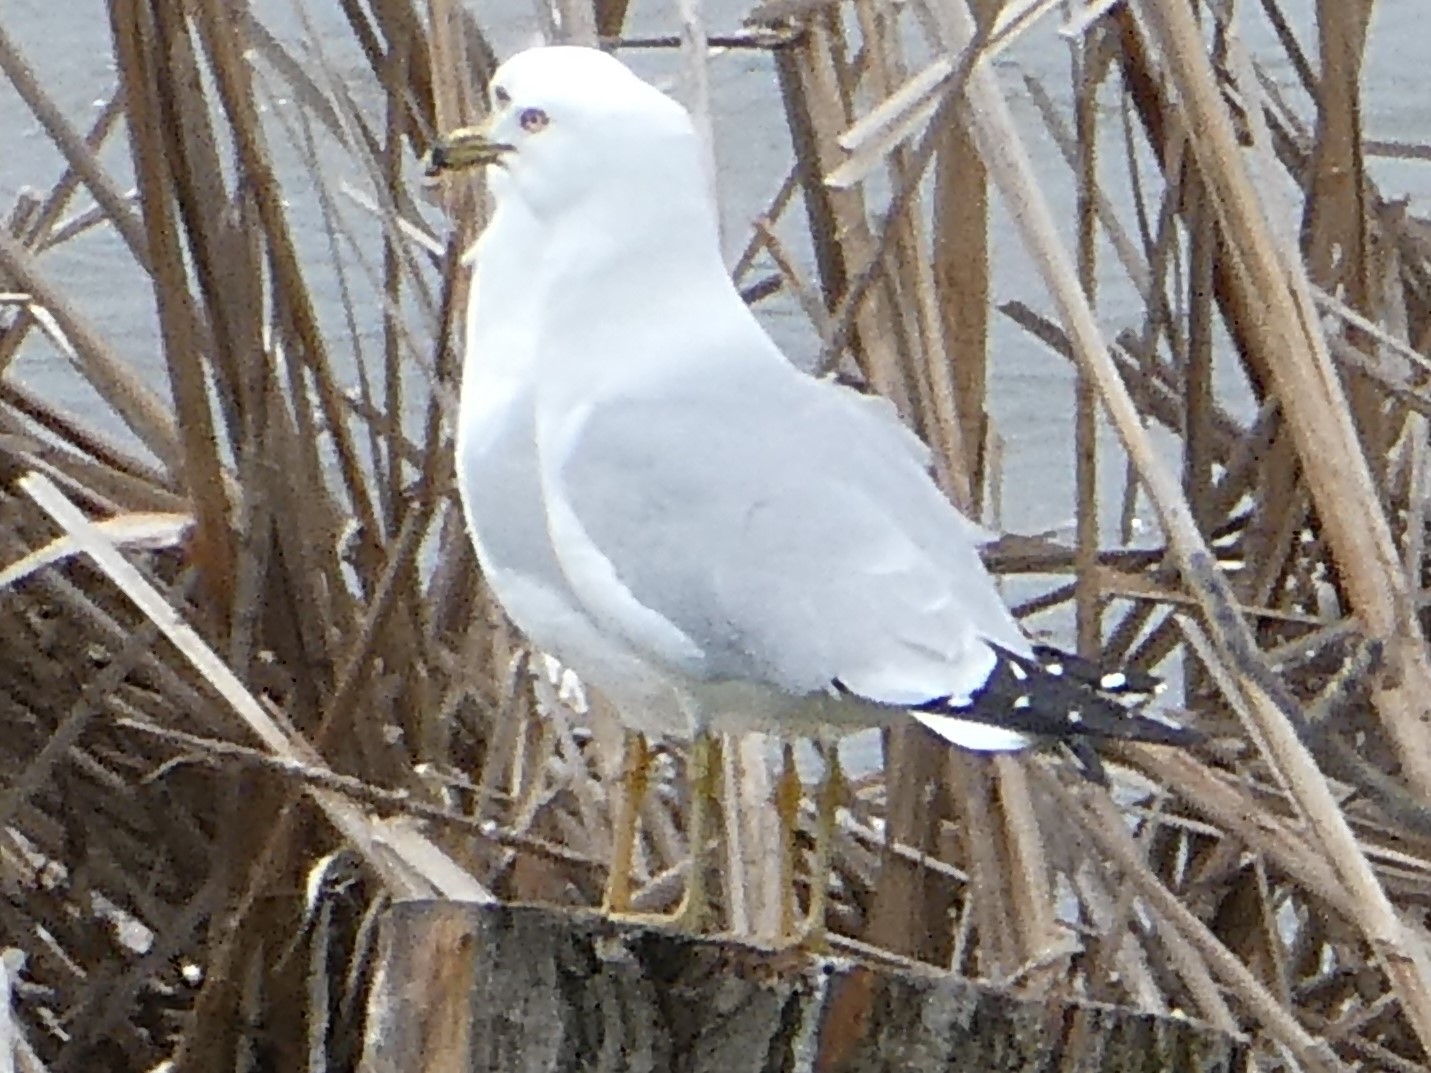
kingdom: Animalia
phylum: Chordata
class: Aves
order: Charadriiformes
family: Laridae
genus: Larus
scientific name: Larus delawarensis
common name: Ring-billed gull
